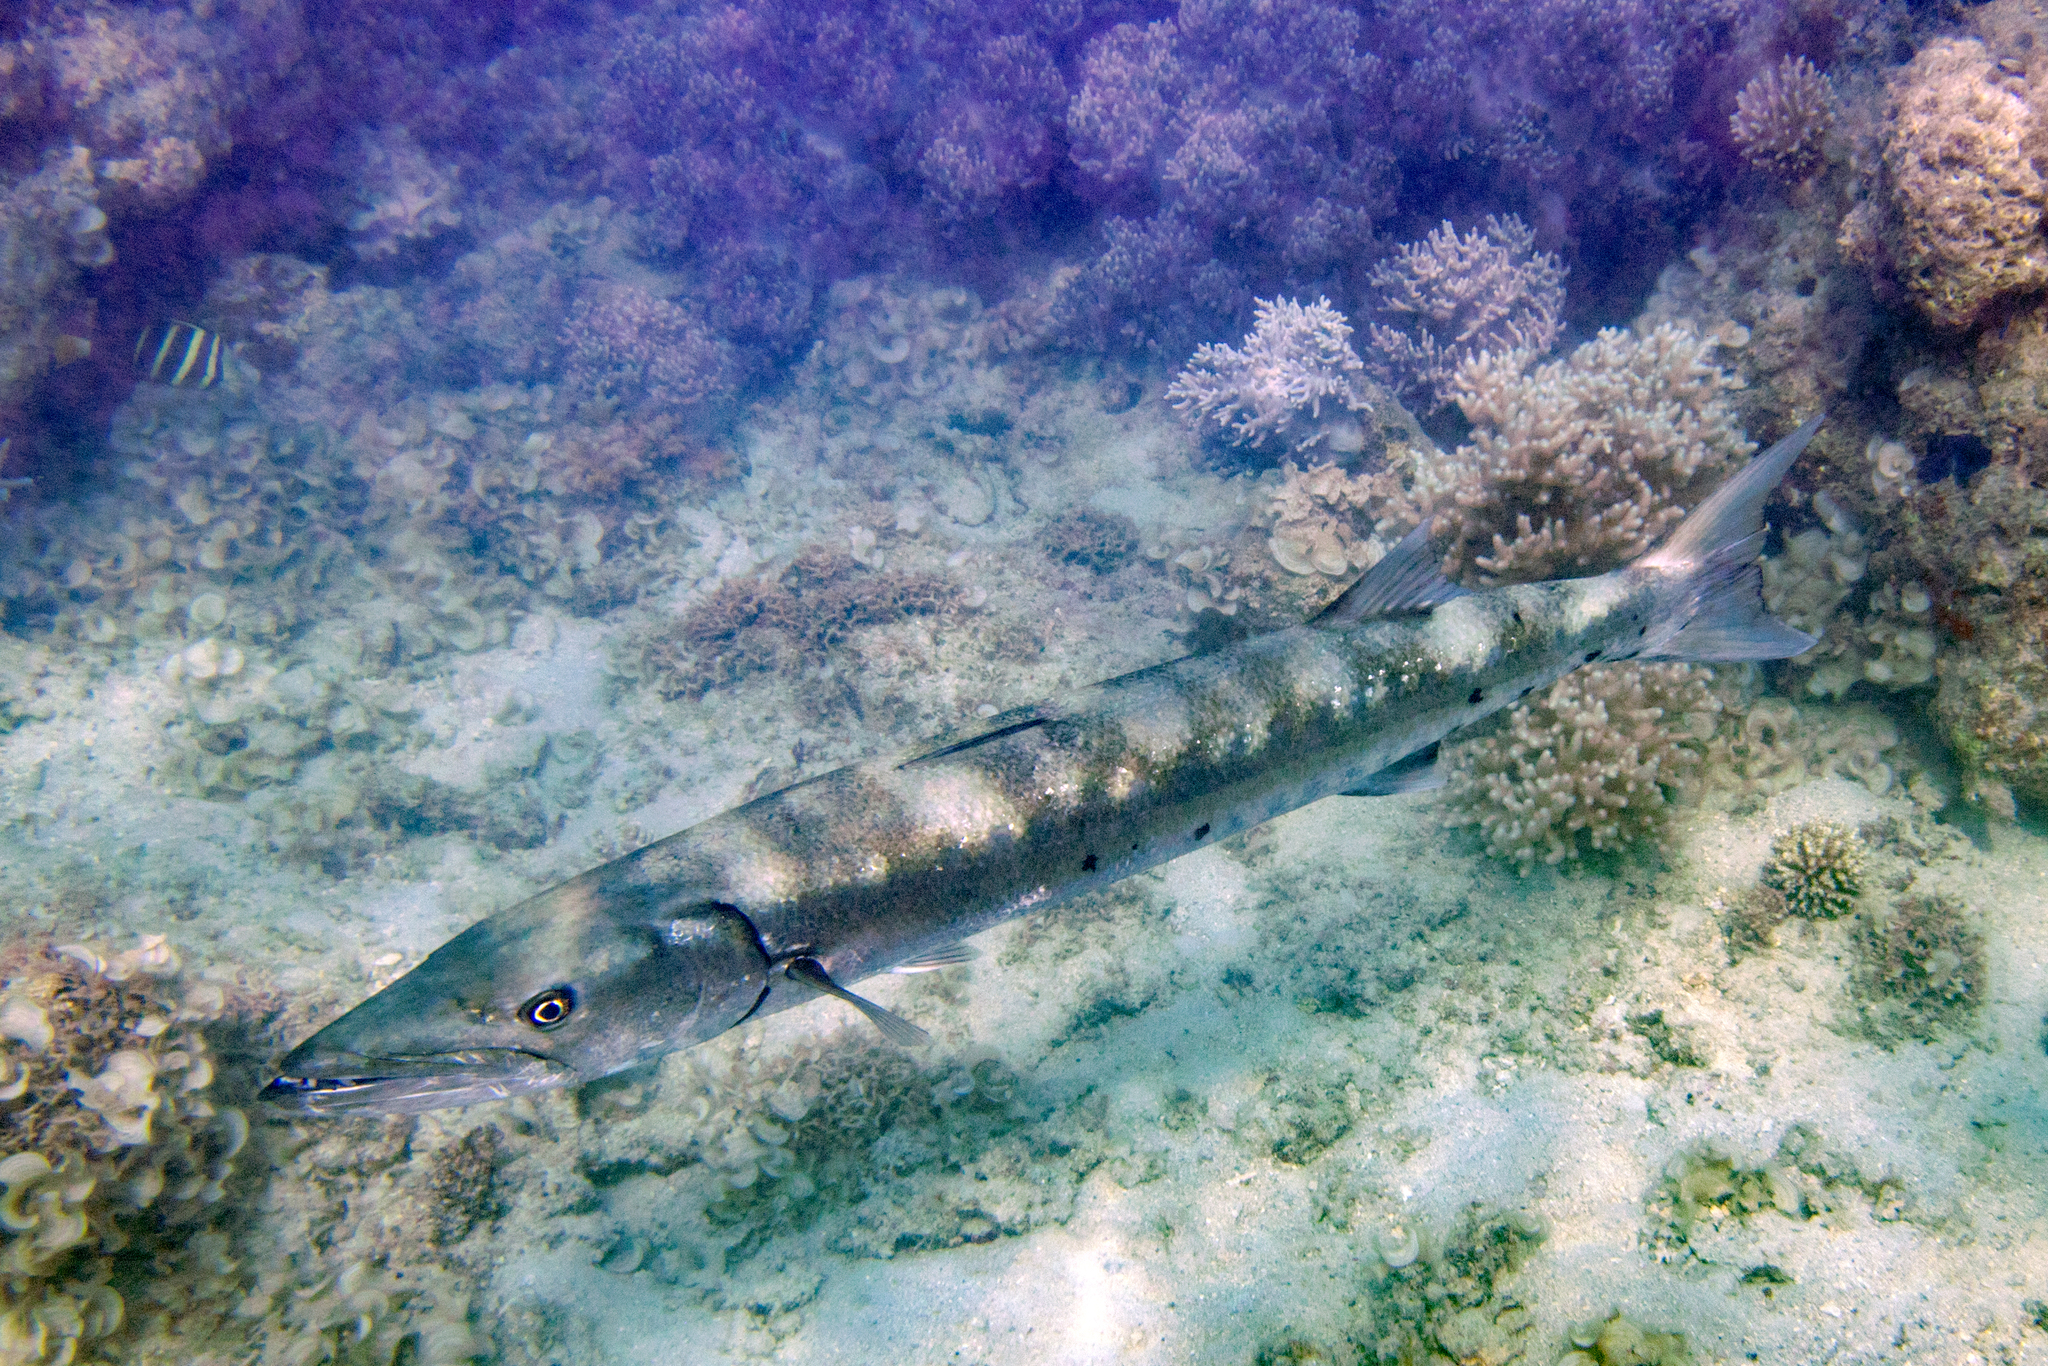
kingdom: Animalia
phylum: Chordata
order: Perciformes
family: Sphyraenidae
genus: Sphyraena
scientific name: Sphyraena barracuda
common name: Great barracuda
